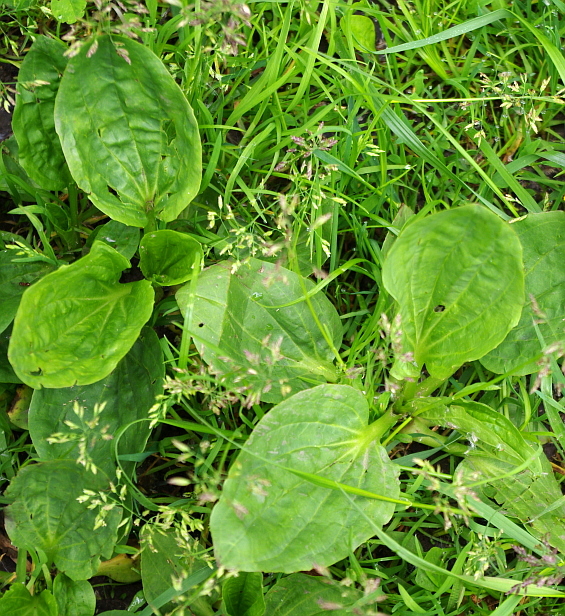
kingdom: Plantae
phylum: Tracheophyta
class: Magnoliopsida
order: Lamiales
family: Plantaginaceae
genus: Plantago
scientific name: Plantago major
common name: Common plantain
